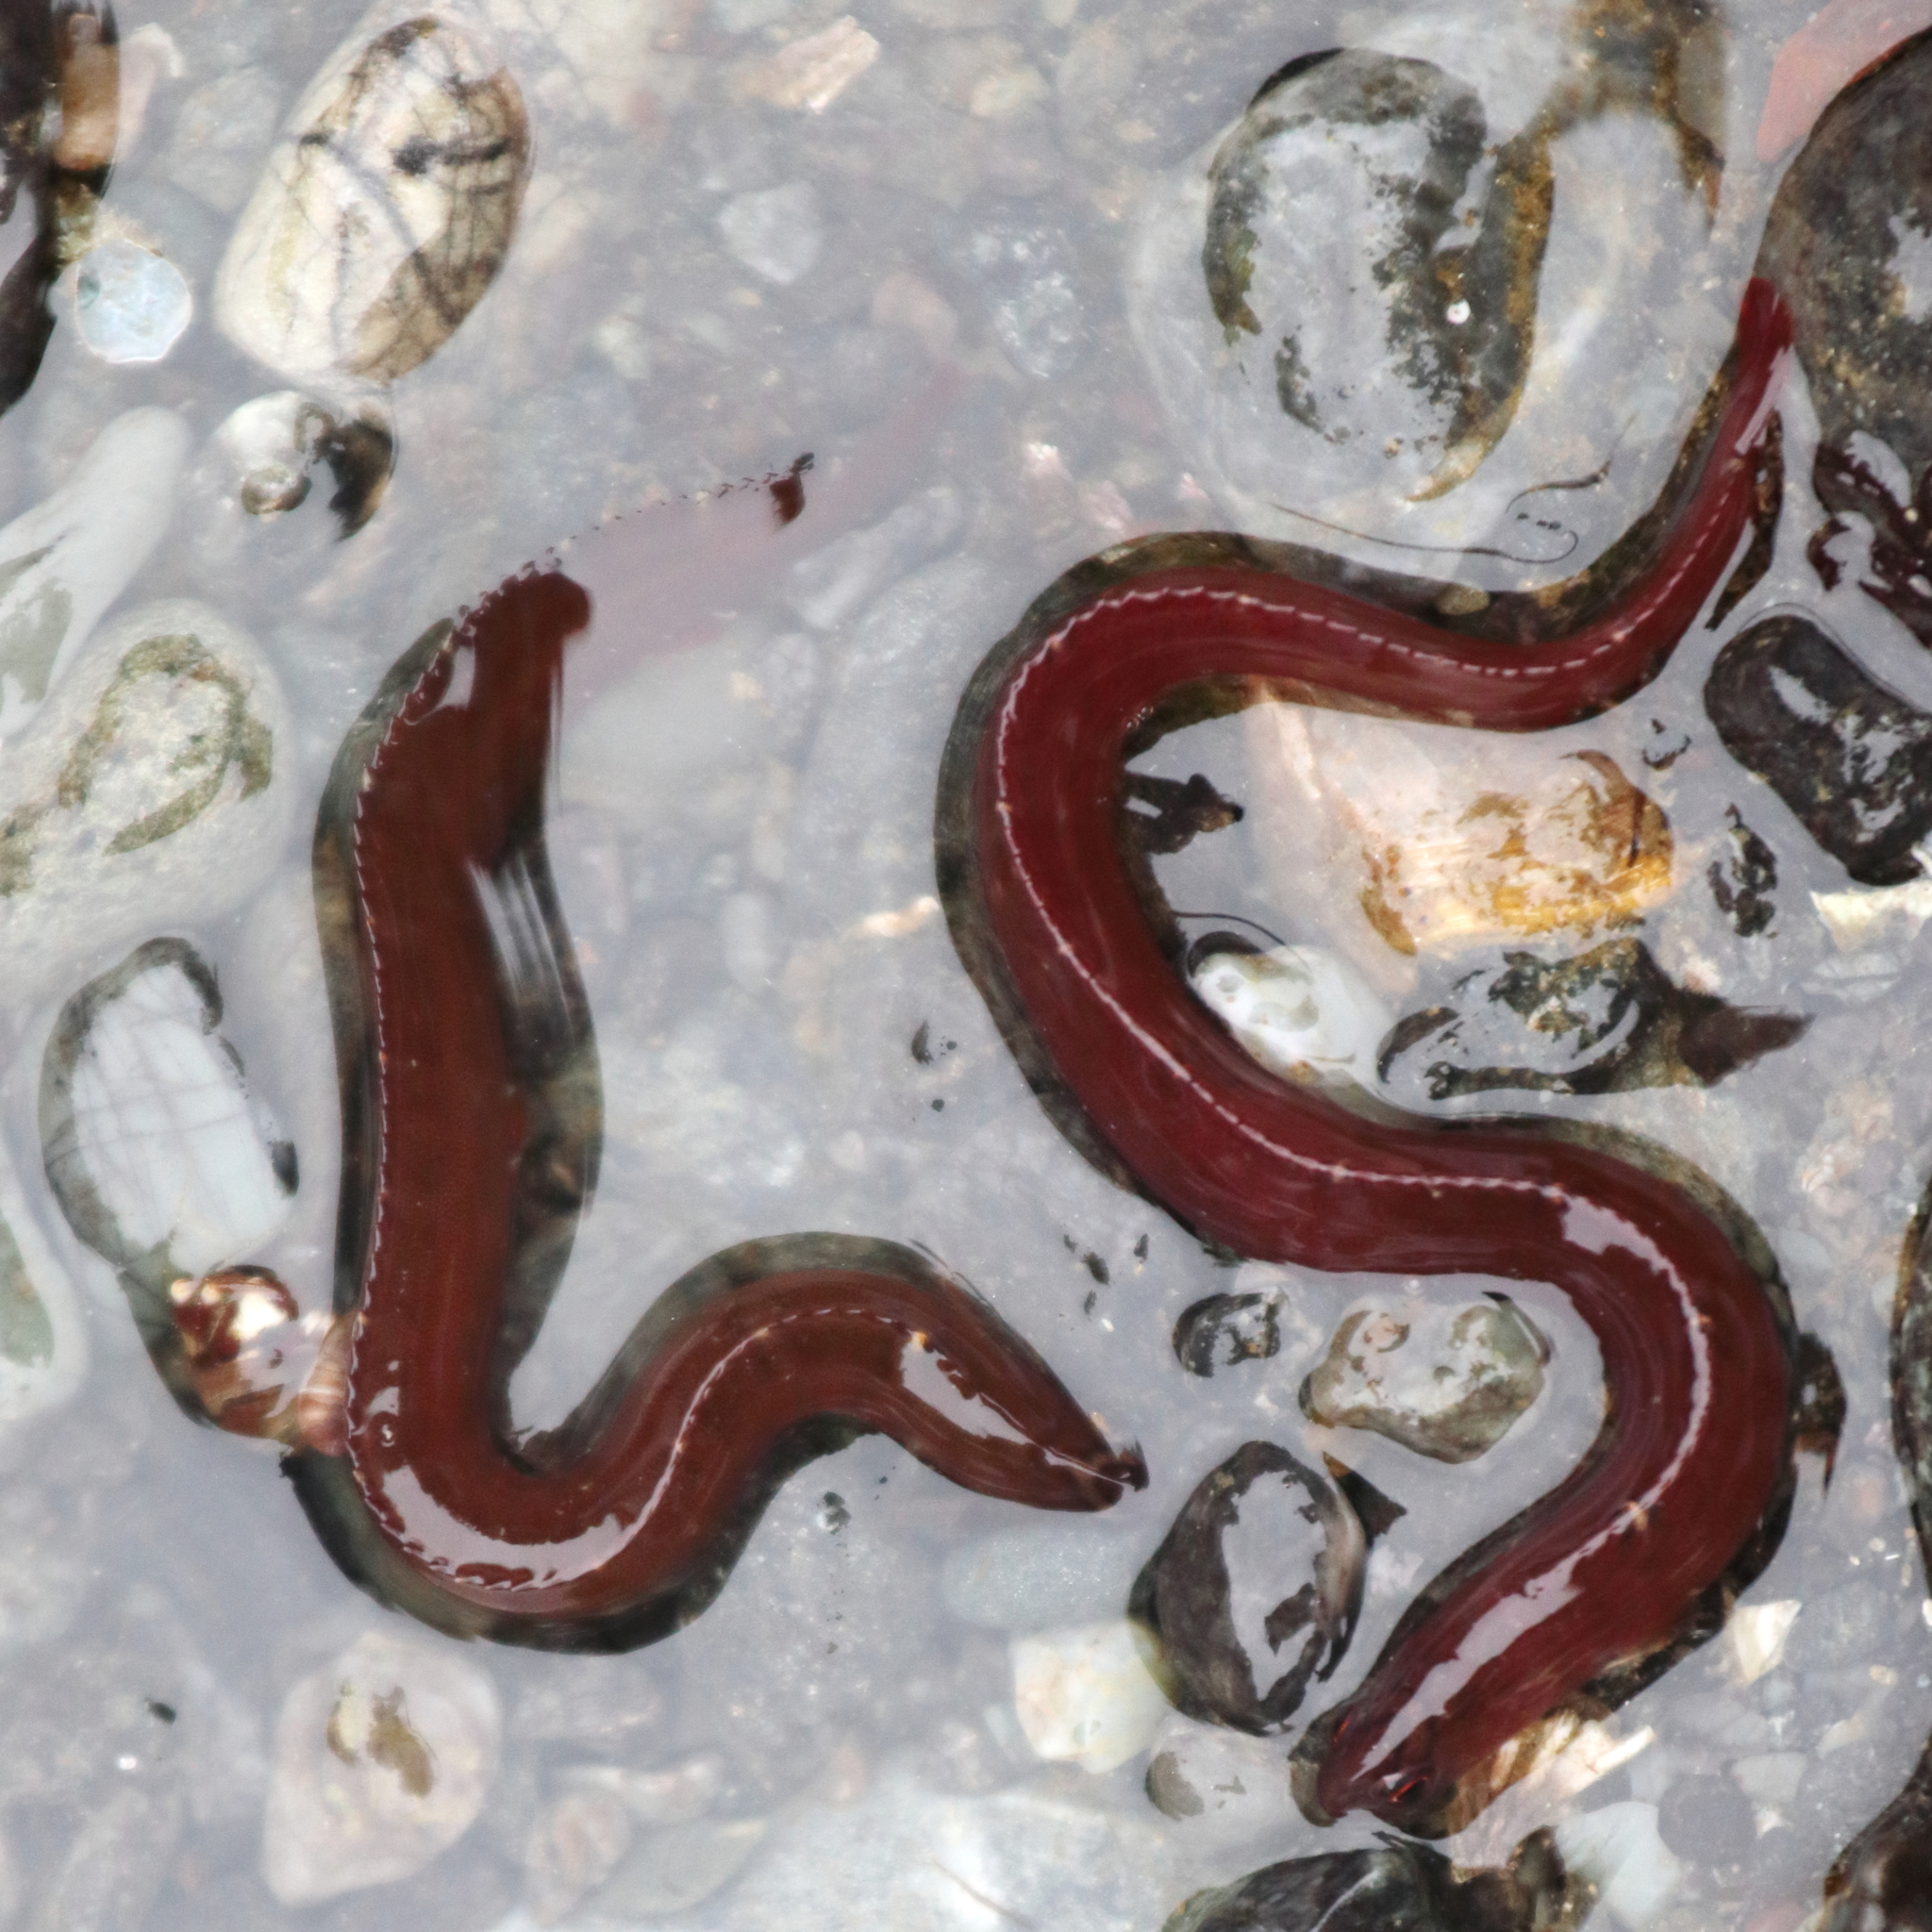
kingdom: Animalia
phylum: Chordata
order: Perciformes
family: Pholidae
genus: Pholis
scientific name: Pholis laeta
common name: Crescent gunnel
